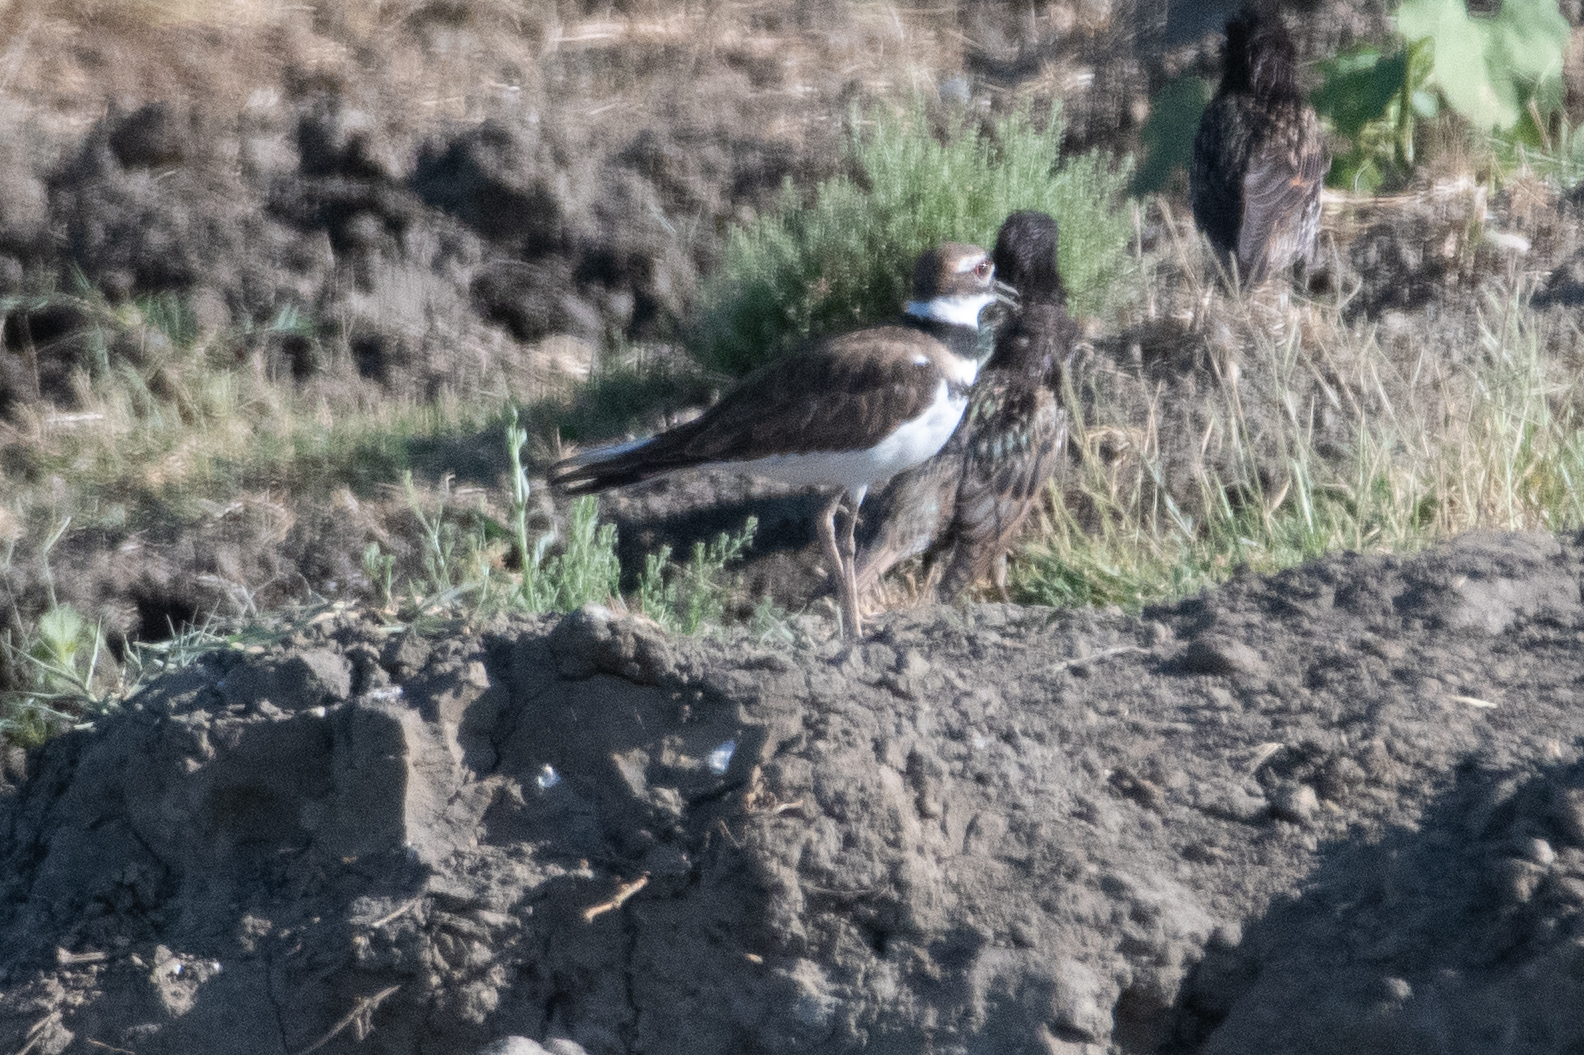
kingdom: Animalia
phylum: Chordata
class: Aves
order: Charadriiformes
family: Charadriidae
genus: Charadrius
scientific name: Charadrius vociferus
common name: Killdeer
